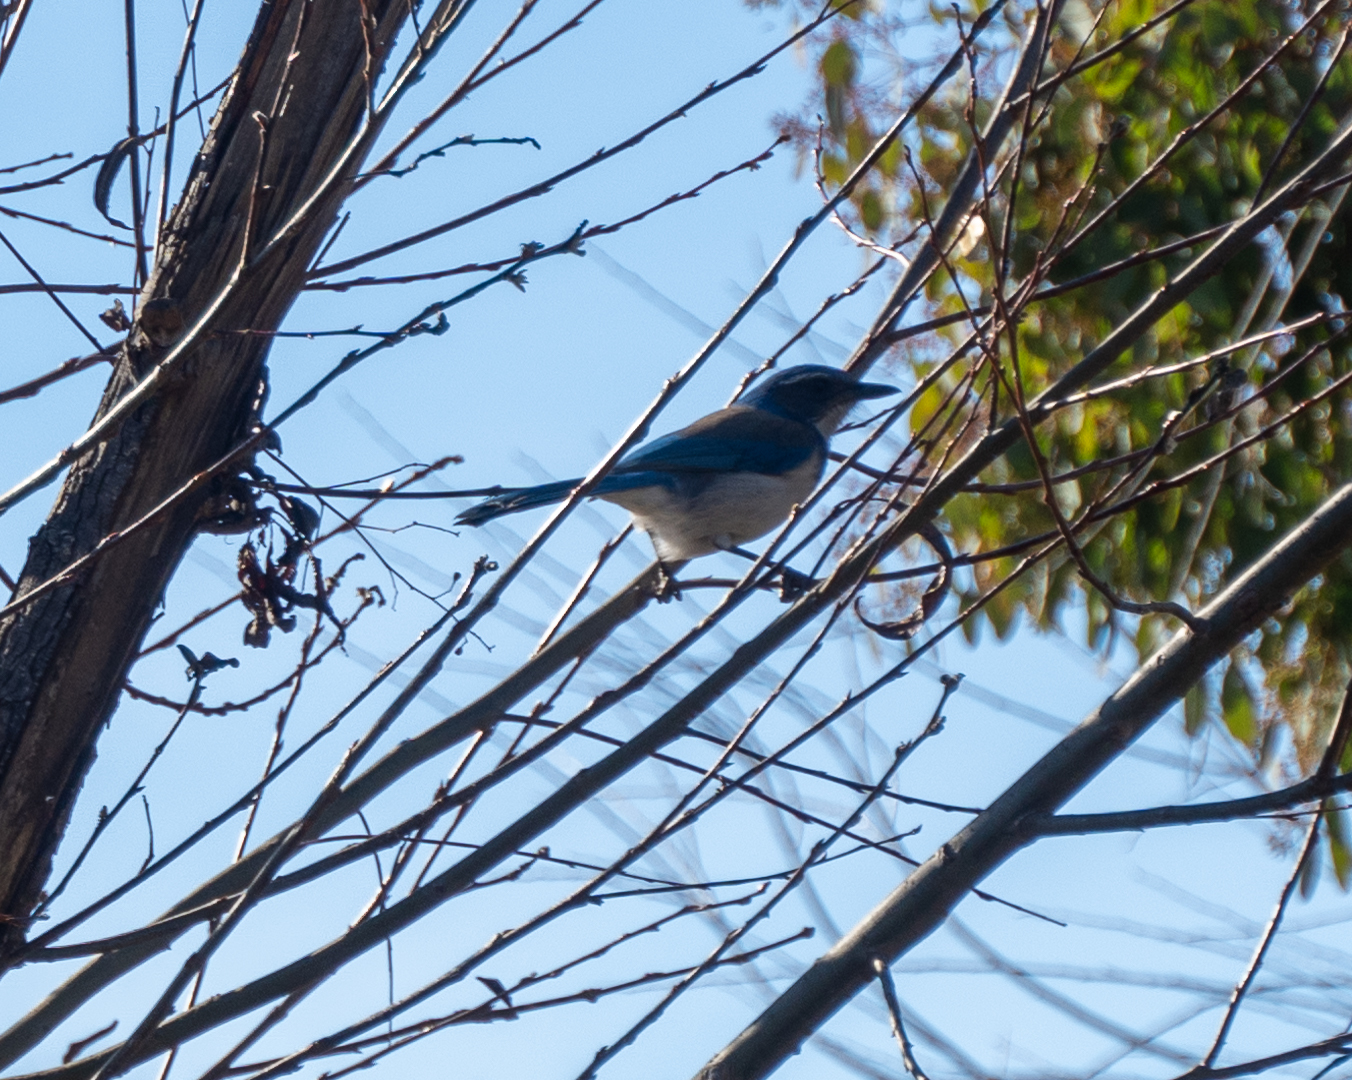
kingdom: Animalia
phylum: Chordata
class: Aves
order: Passeriformes
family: Corvidae
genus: Aphelocoma
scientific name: Aphelocoma californica
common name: California scrub-jay
